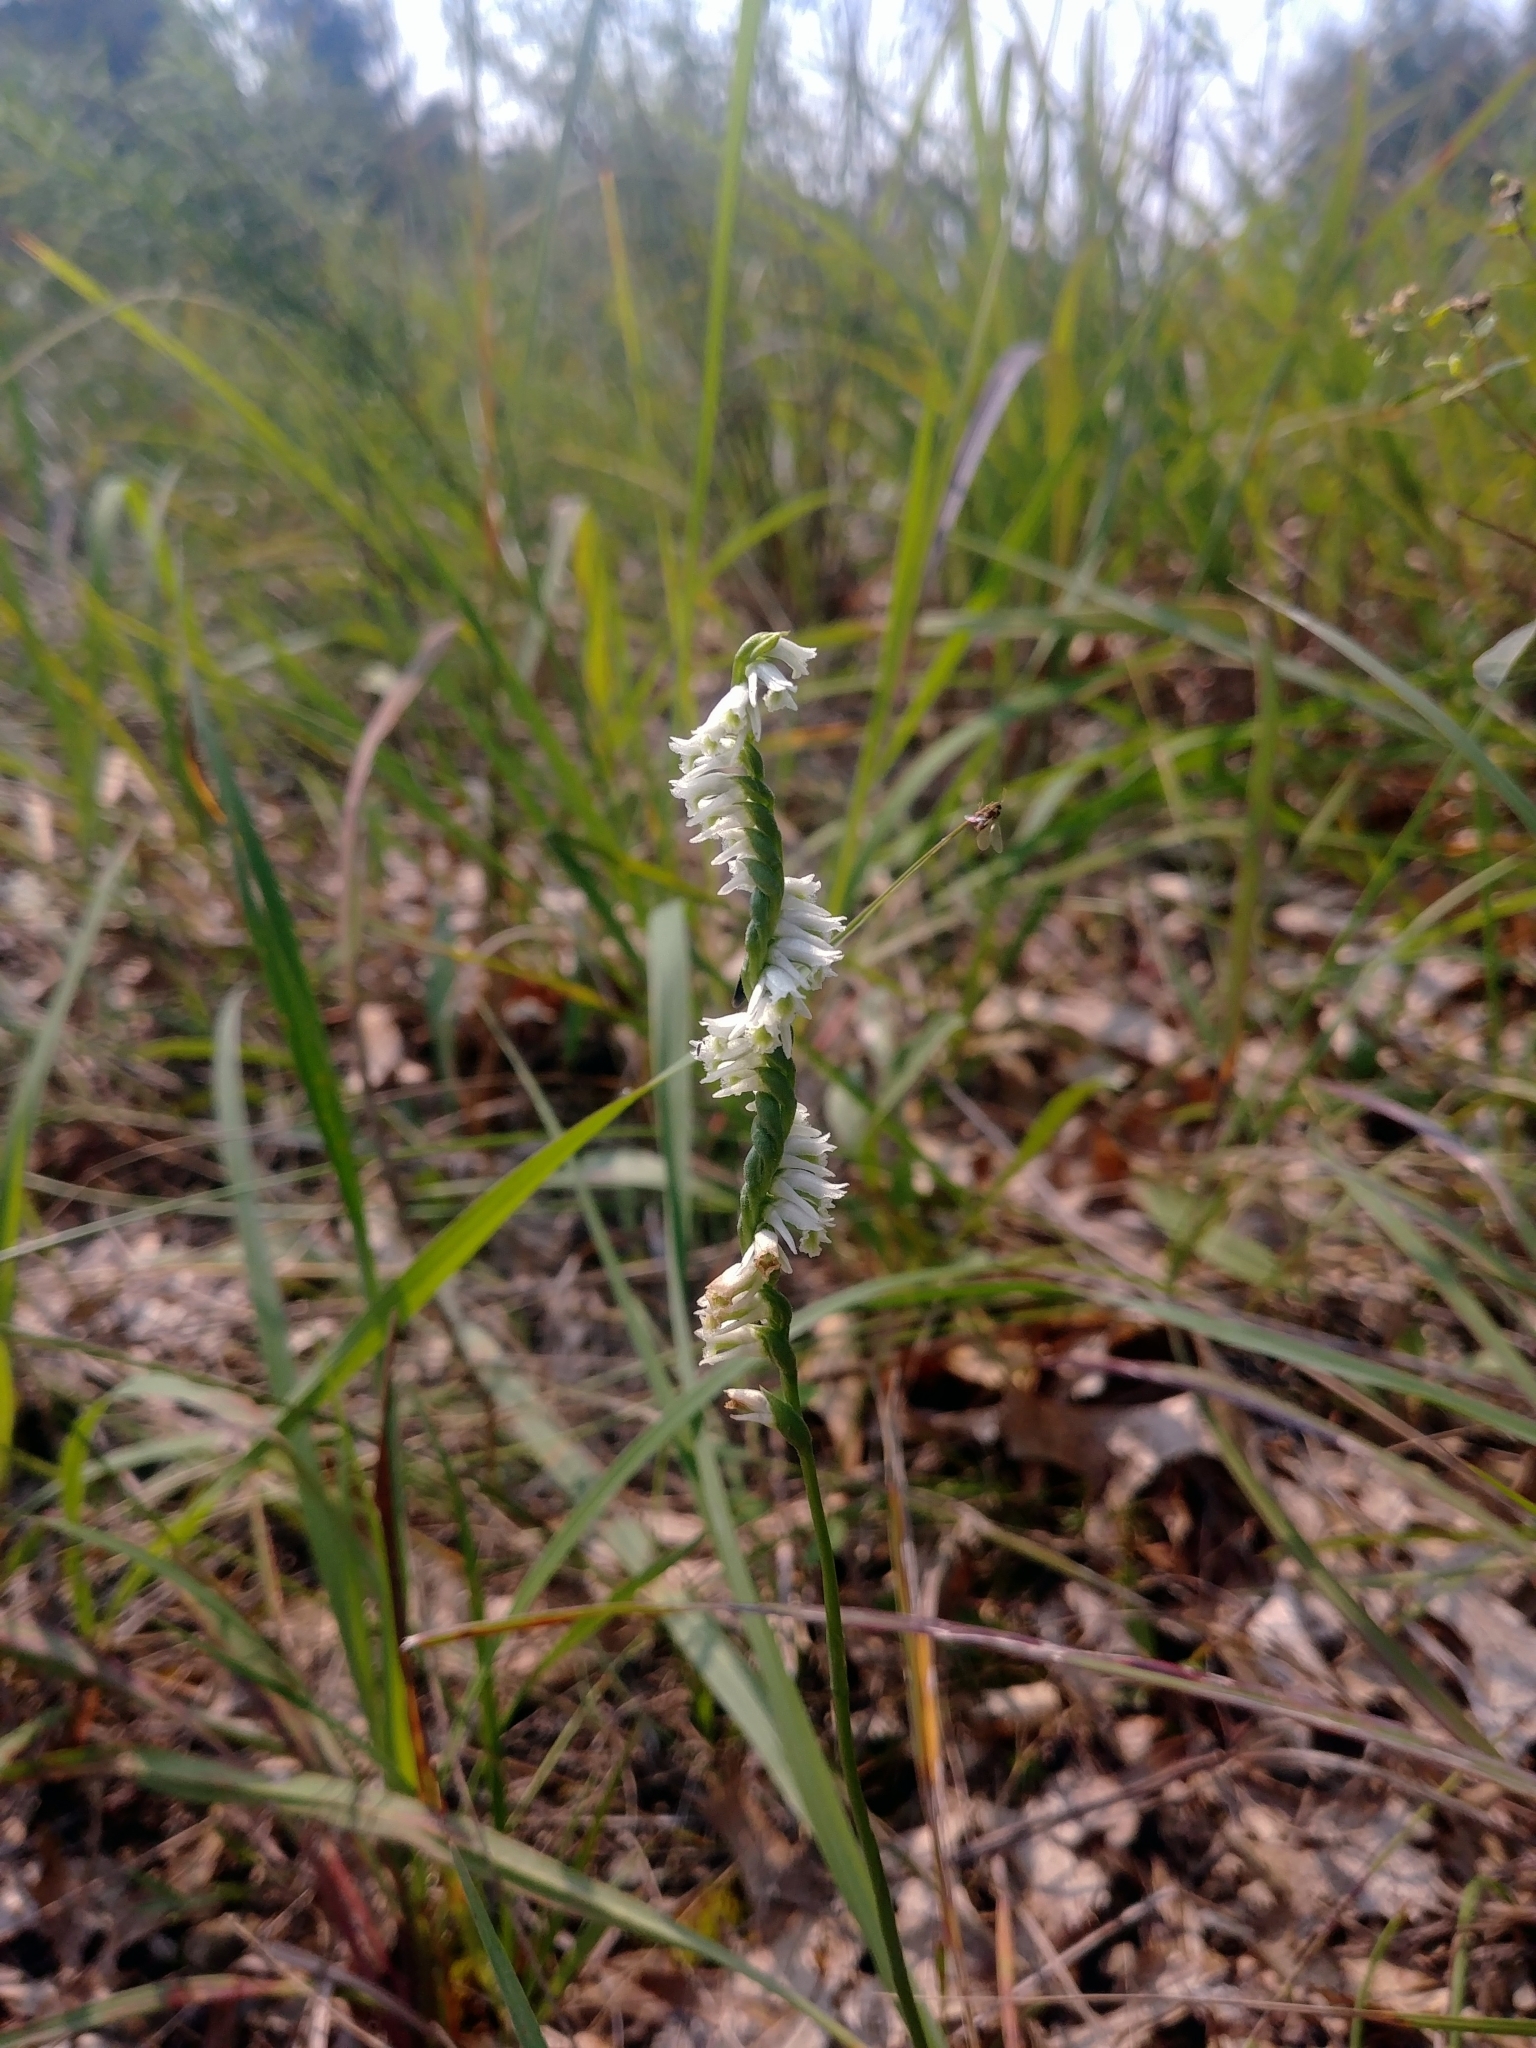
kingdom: Plantae
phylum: Tracheophyta
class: Liliopsida
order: Asparagales
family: Orchidaceae
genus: Spiranthes
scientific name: Spiranthes lacera
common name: Northern slender ladies'-tresses
